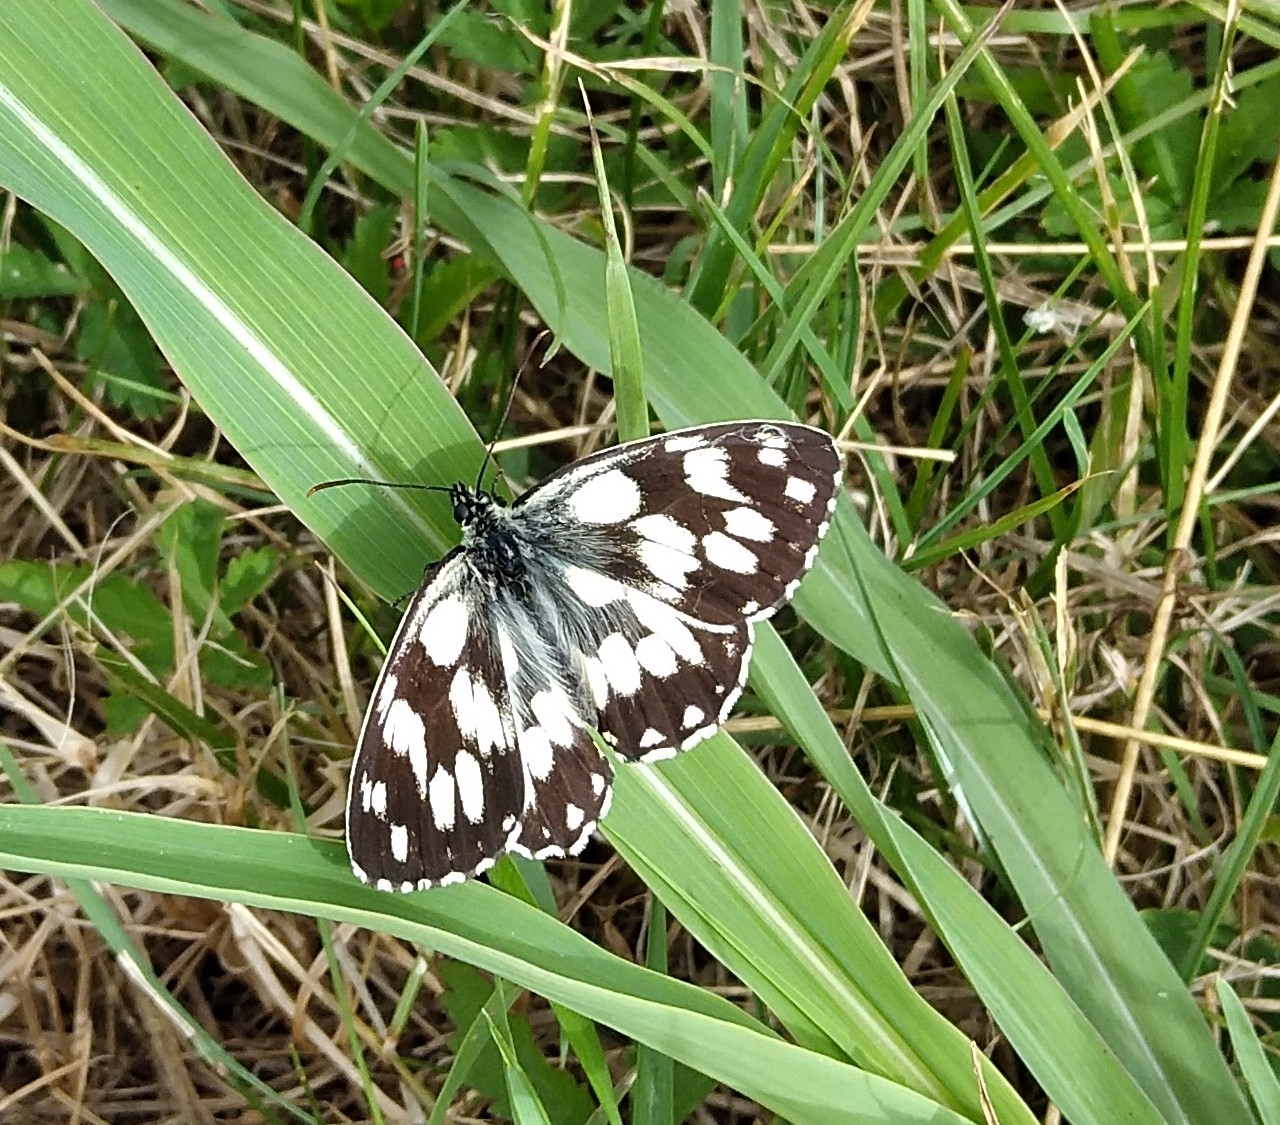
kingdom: Animalia
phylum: Arthropoda
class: Insecta
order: Lepidoptera
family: Nymphalidae
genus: Melanargia
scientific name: Melanargia galathea
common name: Marbled white
